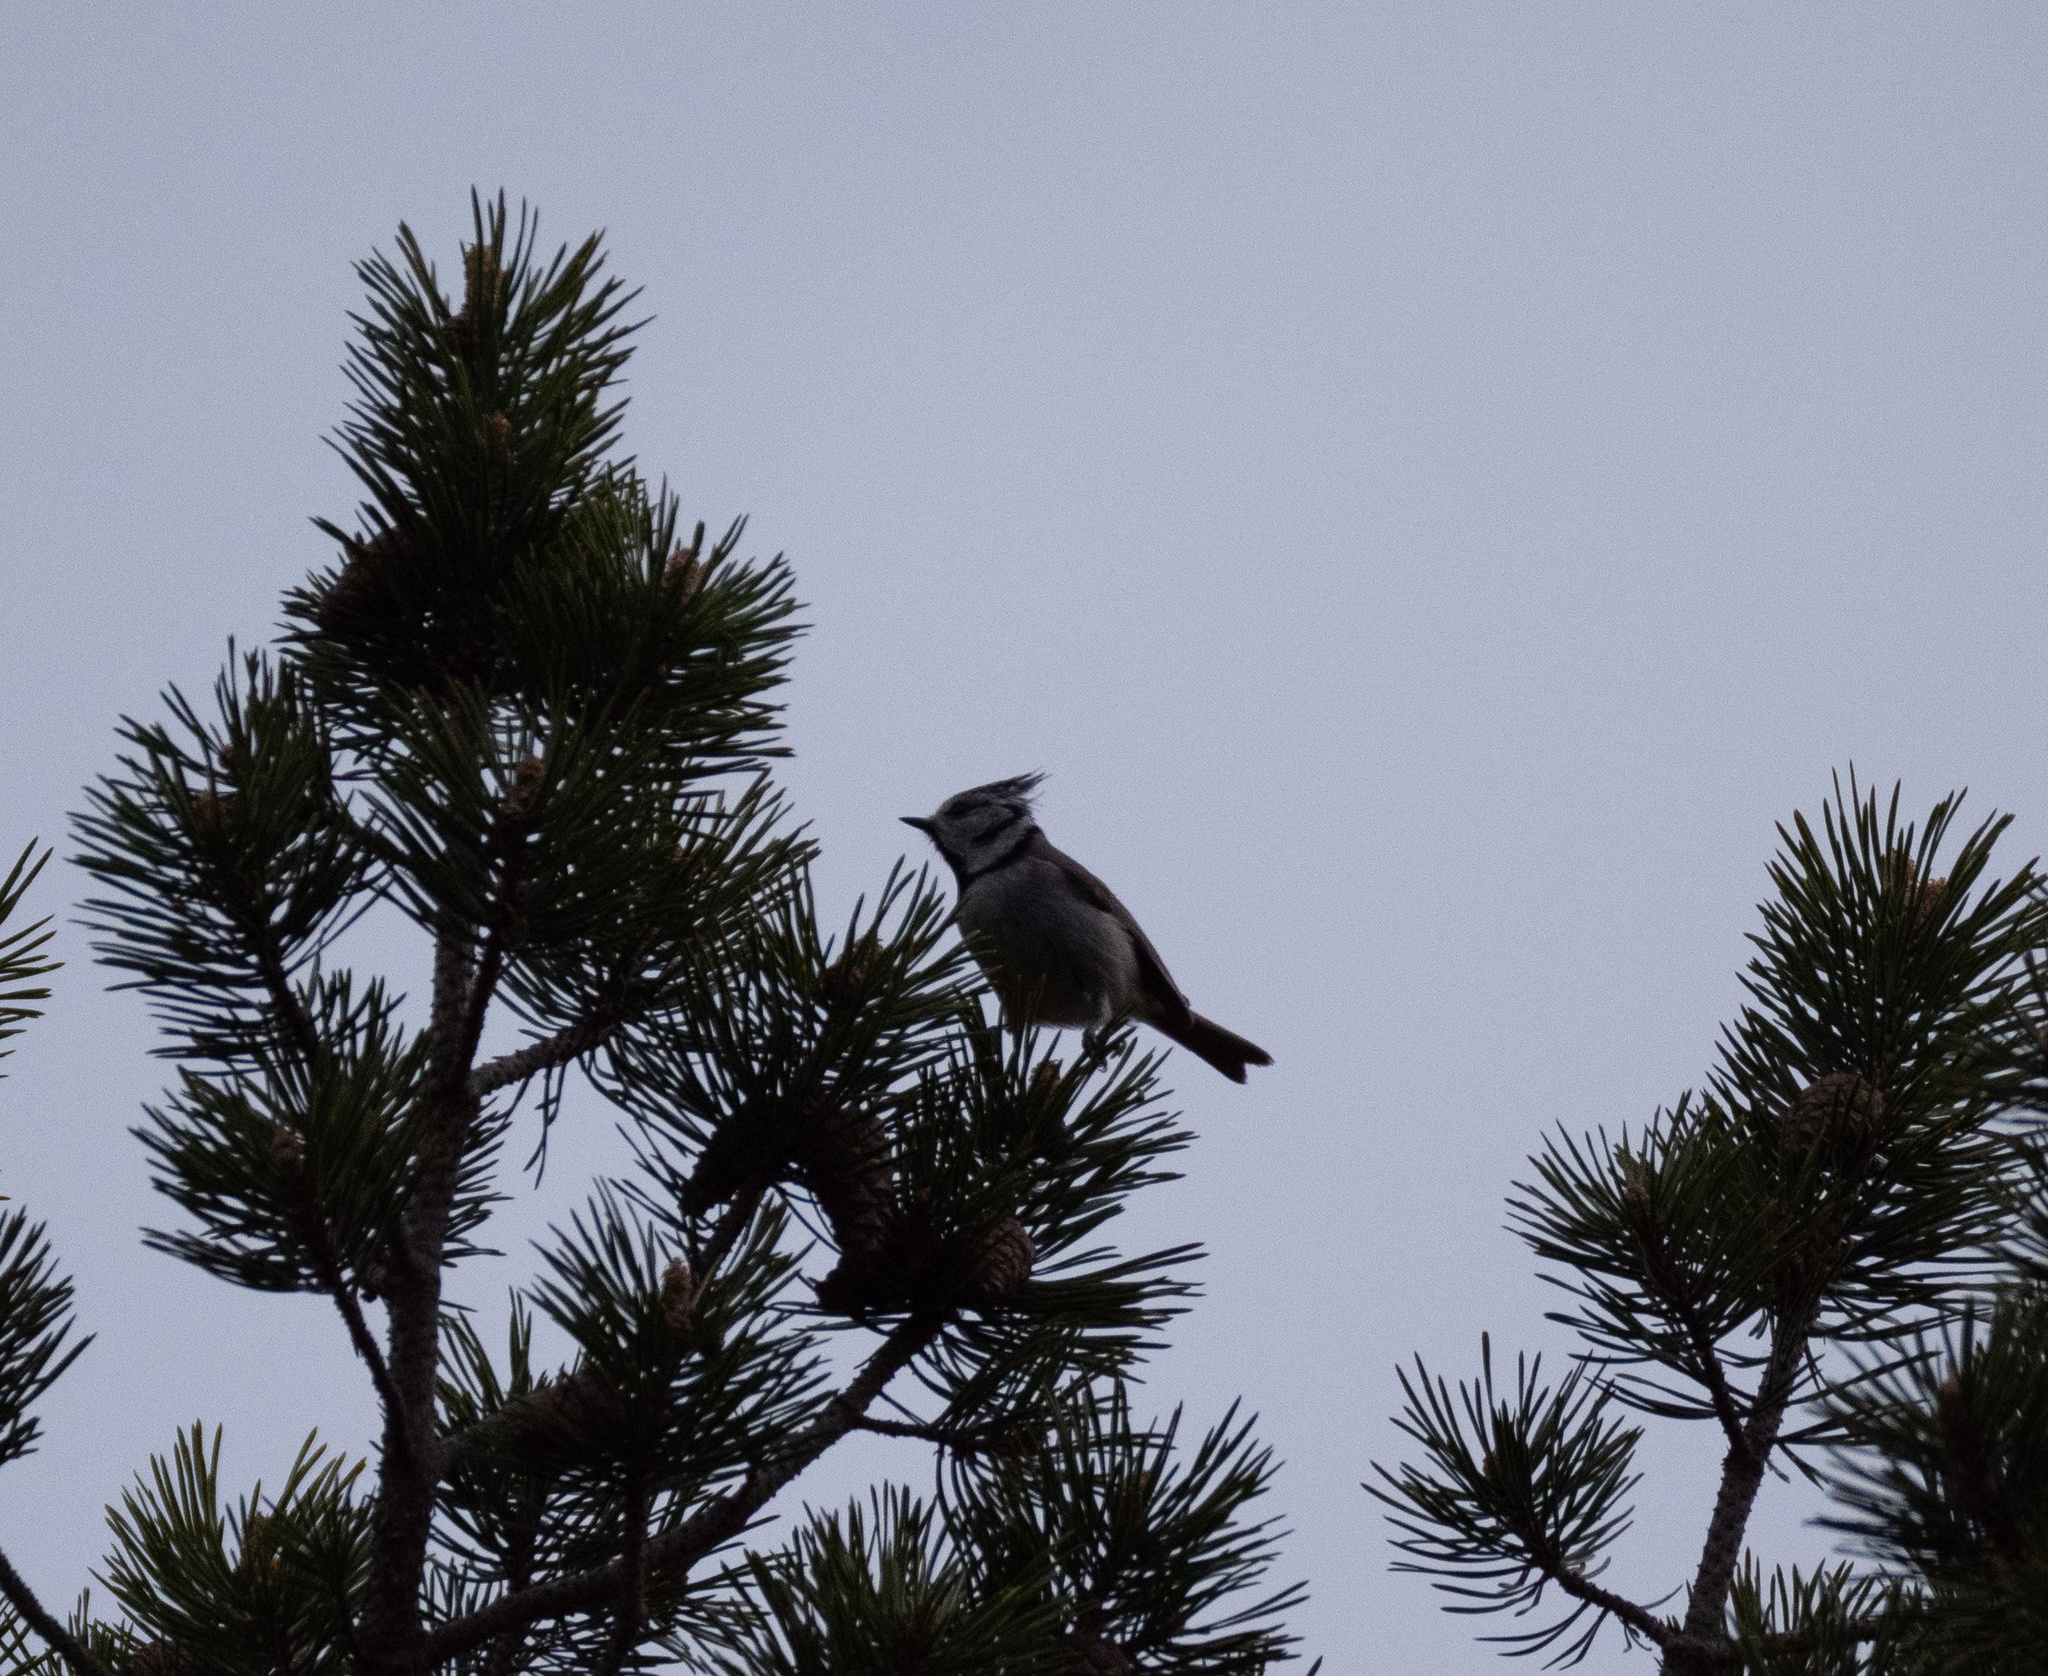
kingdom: Animalia
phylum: Chordata
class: Aves
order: Passeriformes
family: Paridae
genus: Lophophanes
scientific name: Lophophanes cristatus
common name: European crested tit
